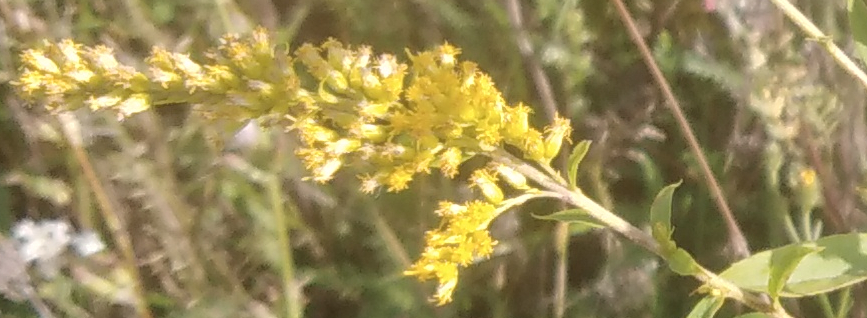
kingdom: Plantae
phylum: Tracheophyta
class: Magnoliopsida
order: Asterales
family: Asteraceae
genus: Solidago
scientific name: Solidago canadensis
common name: Canada goldenrod
